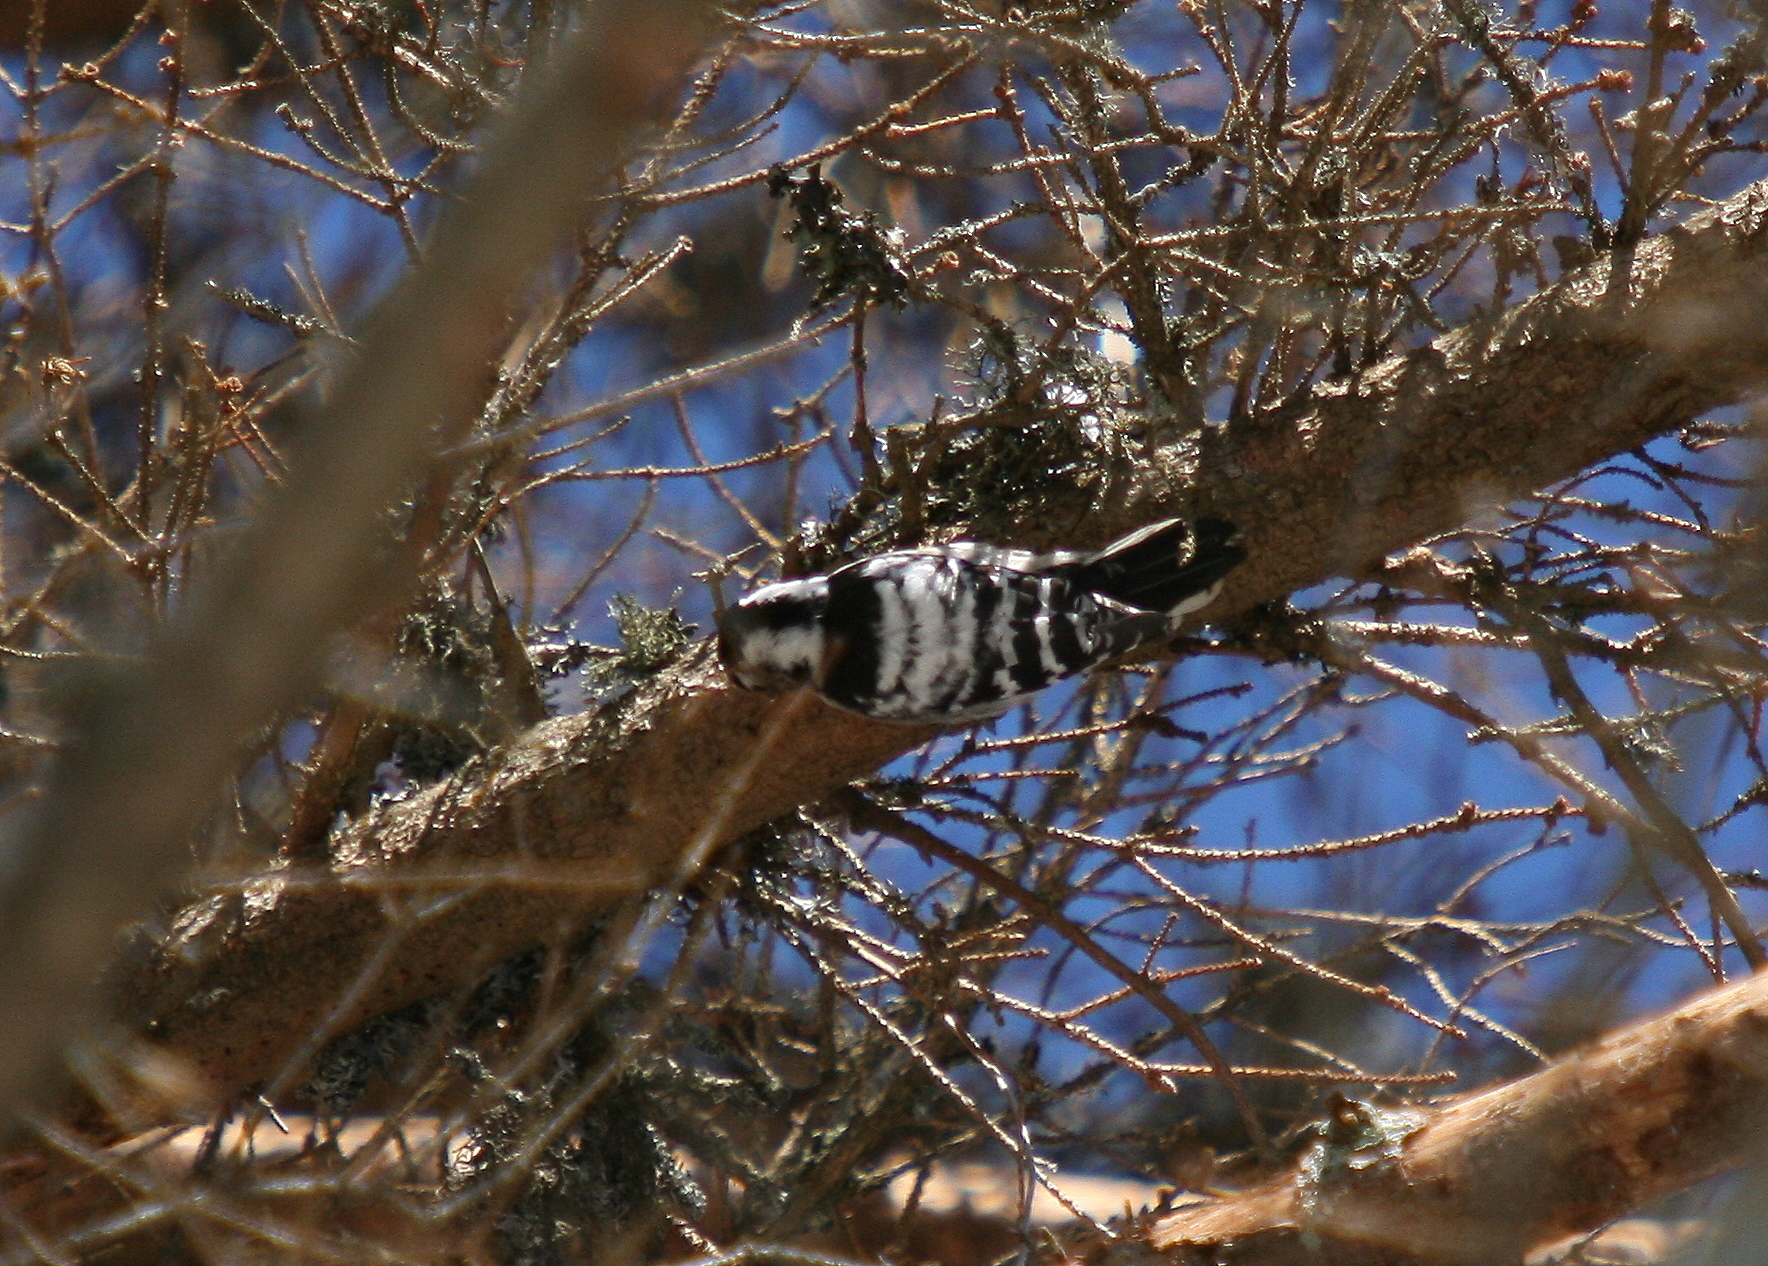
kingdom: Animalia
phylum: Chordata
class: Aves
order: Piciformes
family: Picidae
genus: Dryobates
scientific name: Dryobates minor
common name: Lesser spotted woodpecker
